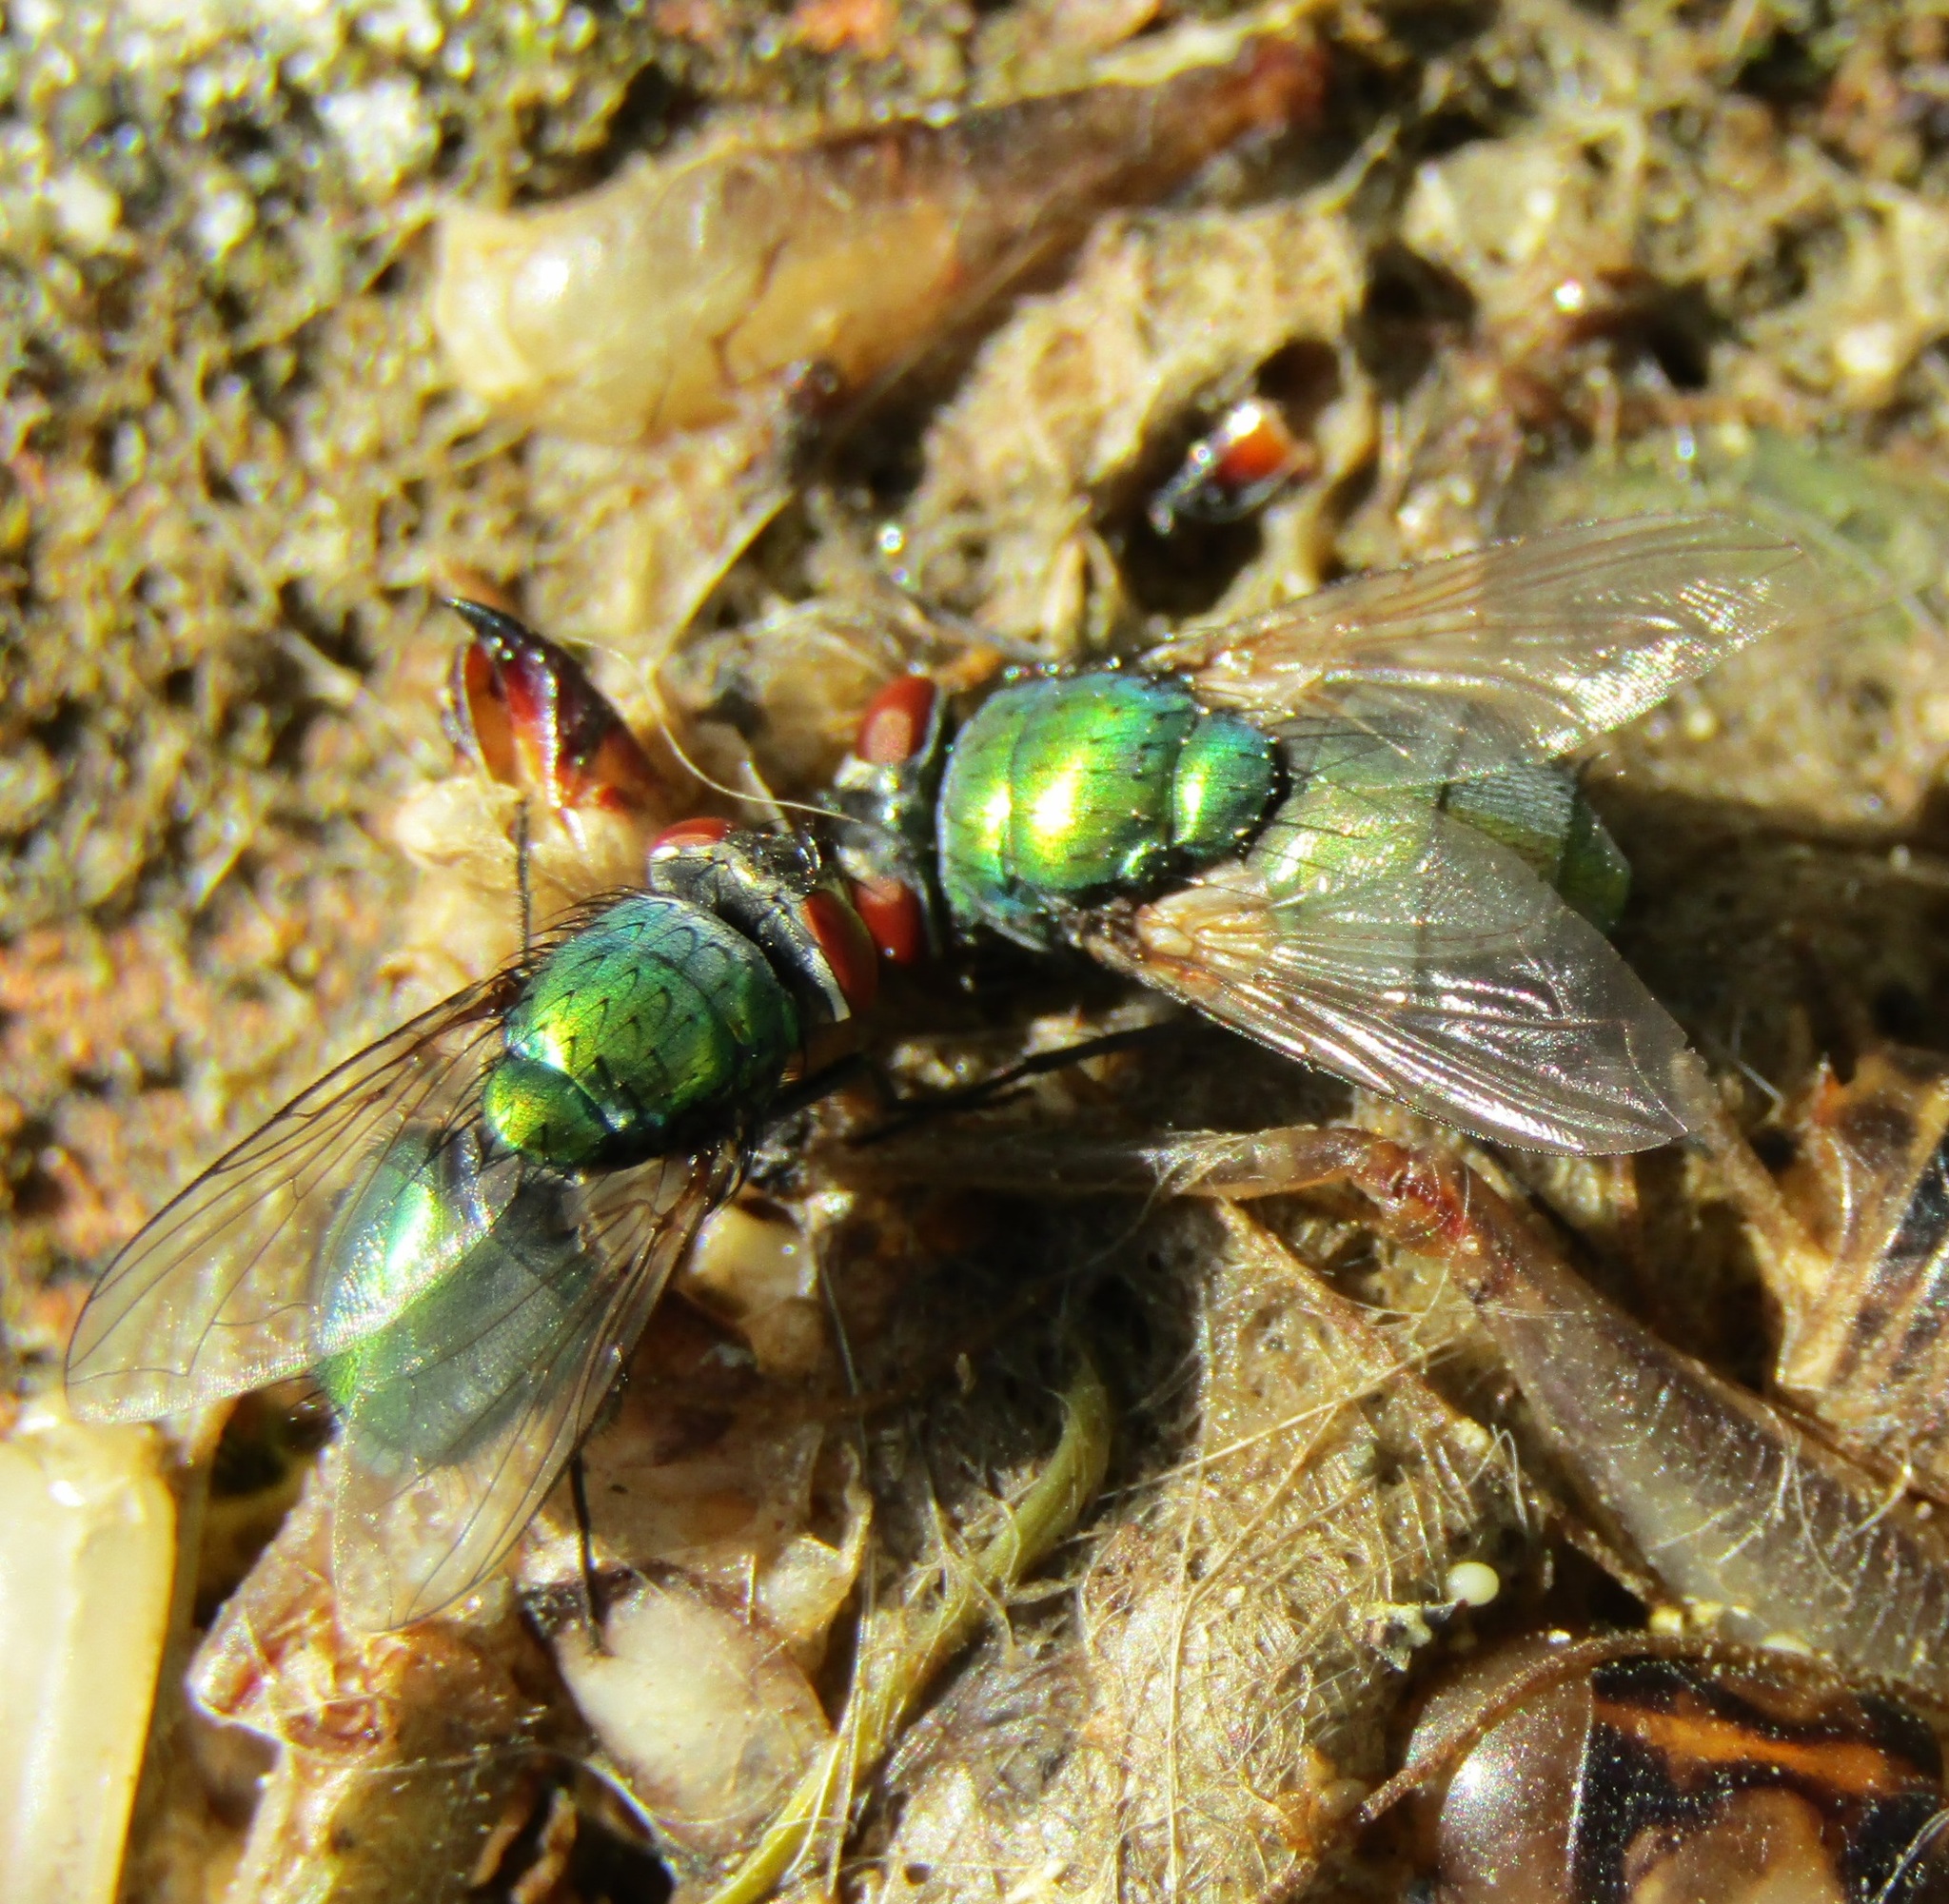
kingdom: Animalia
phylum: Arthropoda
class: Insecta
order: Diptera
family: Calliphoridae
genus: Lucilia
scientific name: Lucilia sericata
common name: Blow fly
